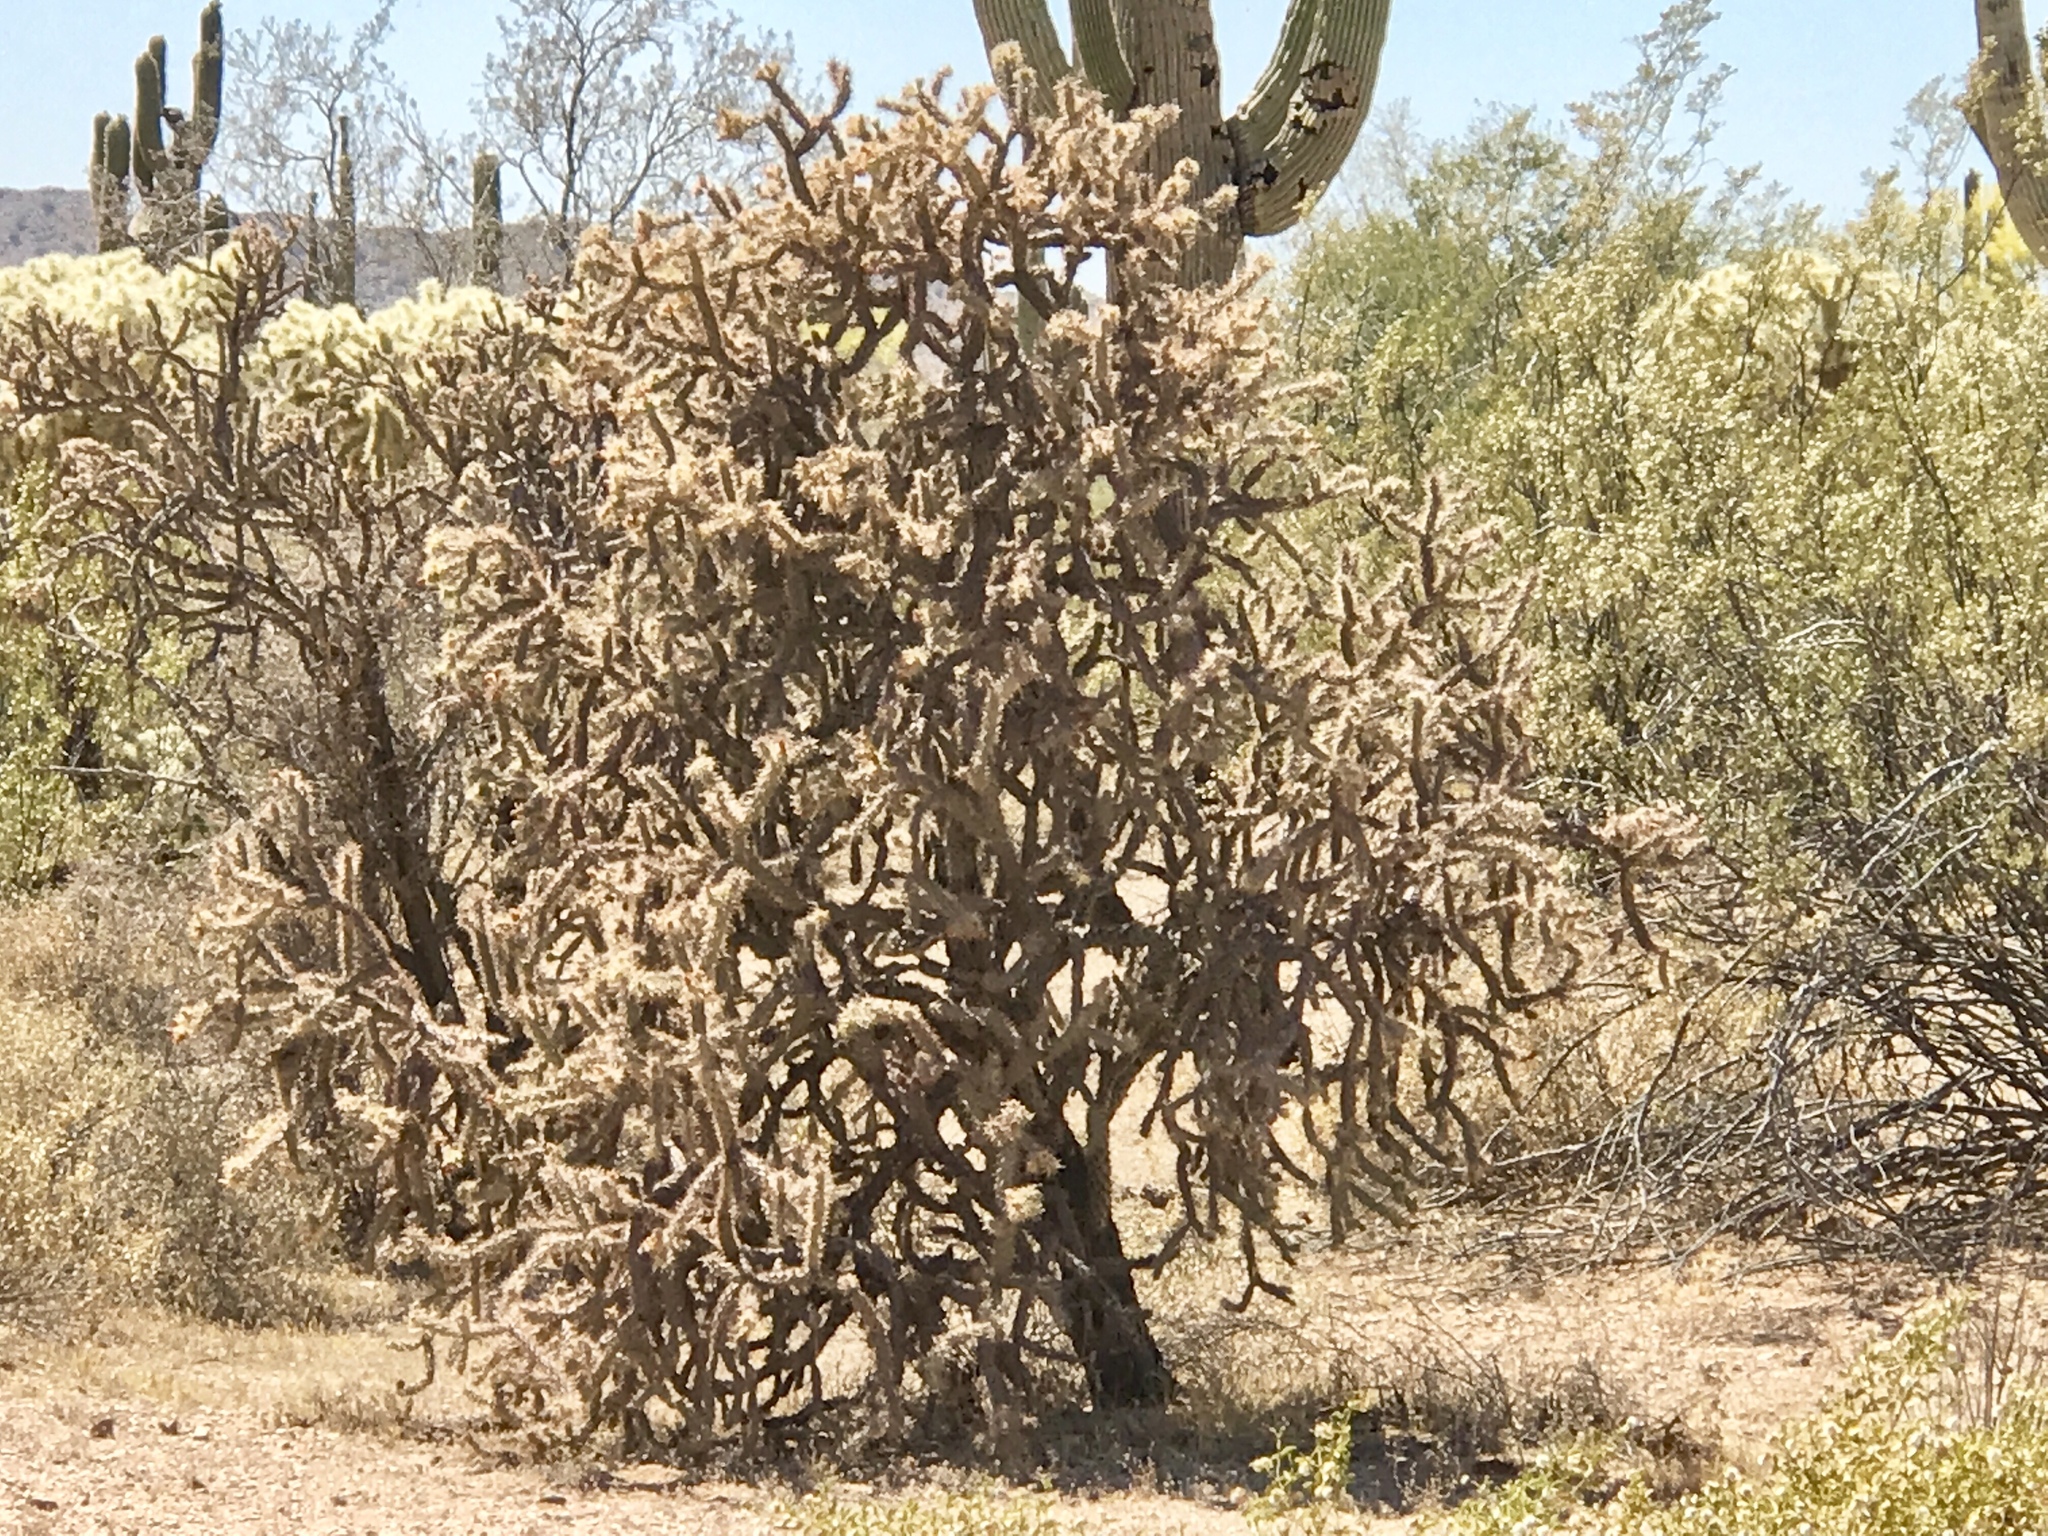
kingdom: Plantae
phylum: Tracheophyta
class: Magnoliopsida
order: Caryophyllales
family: Cactaceae
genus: Cylindropuntia
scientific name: Cylindropuntia acanthocarpa
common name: Buckhorn cholla
